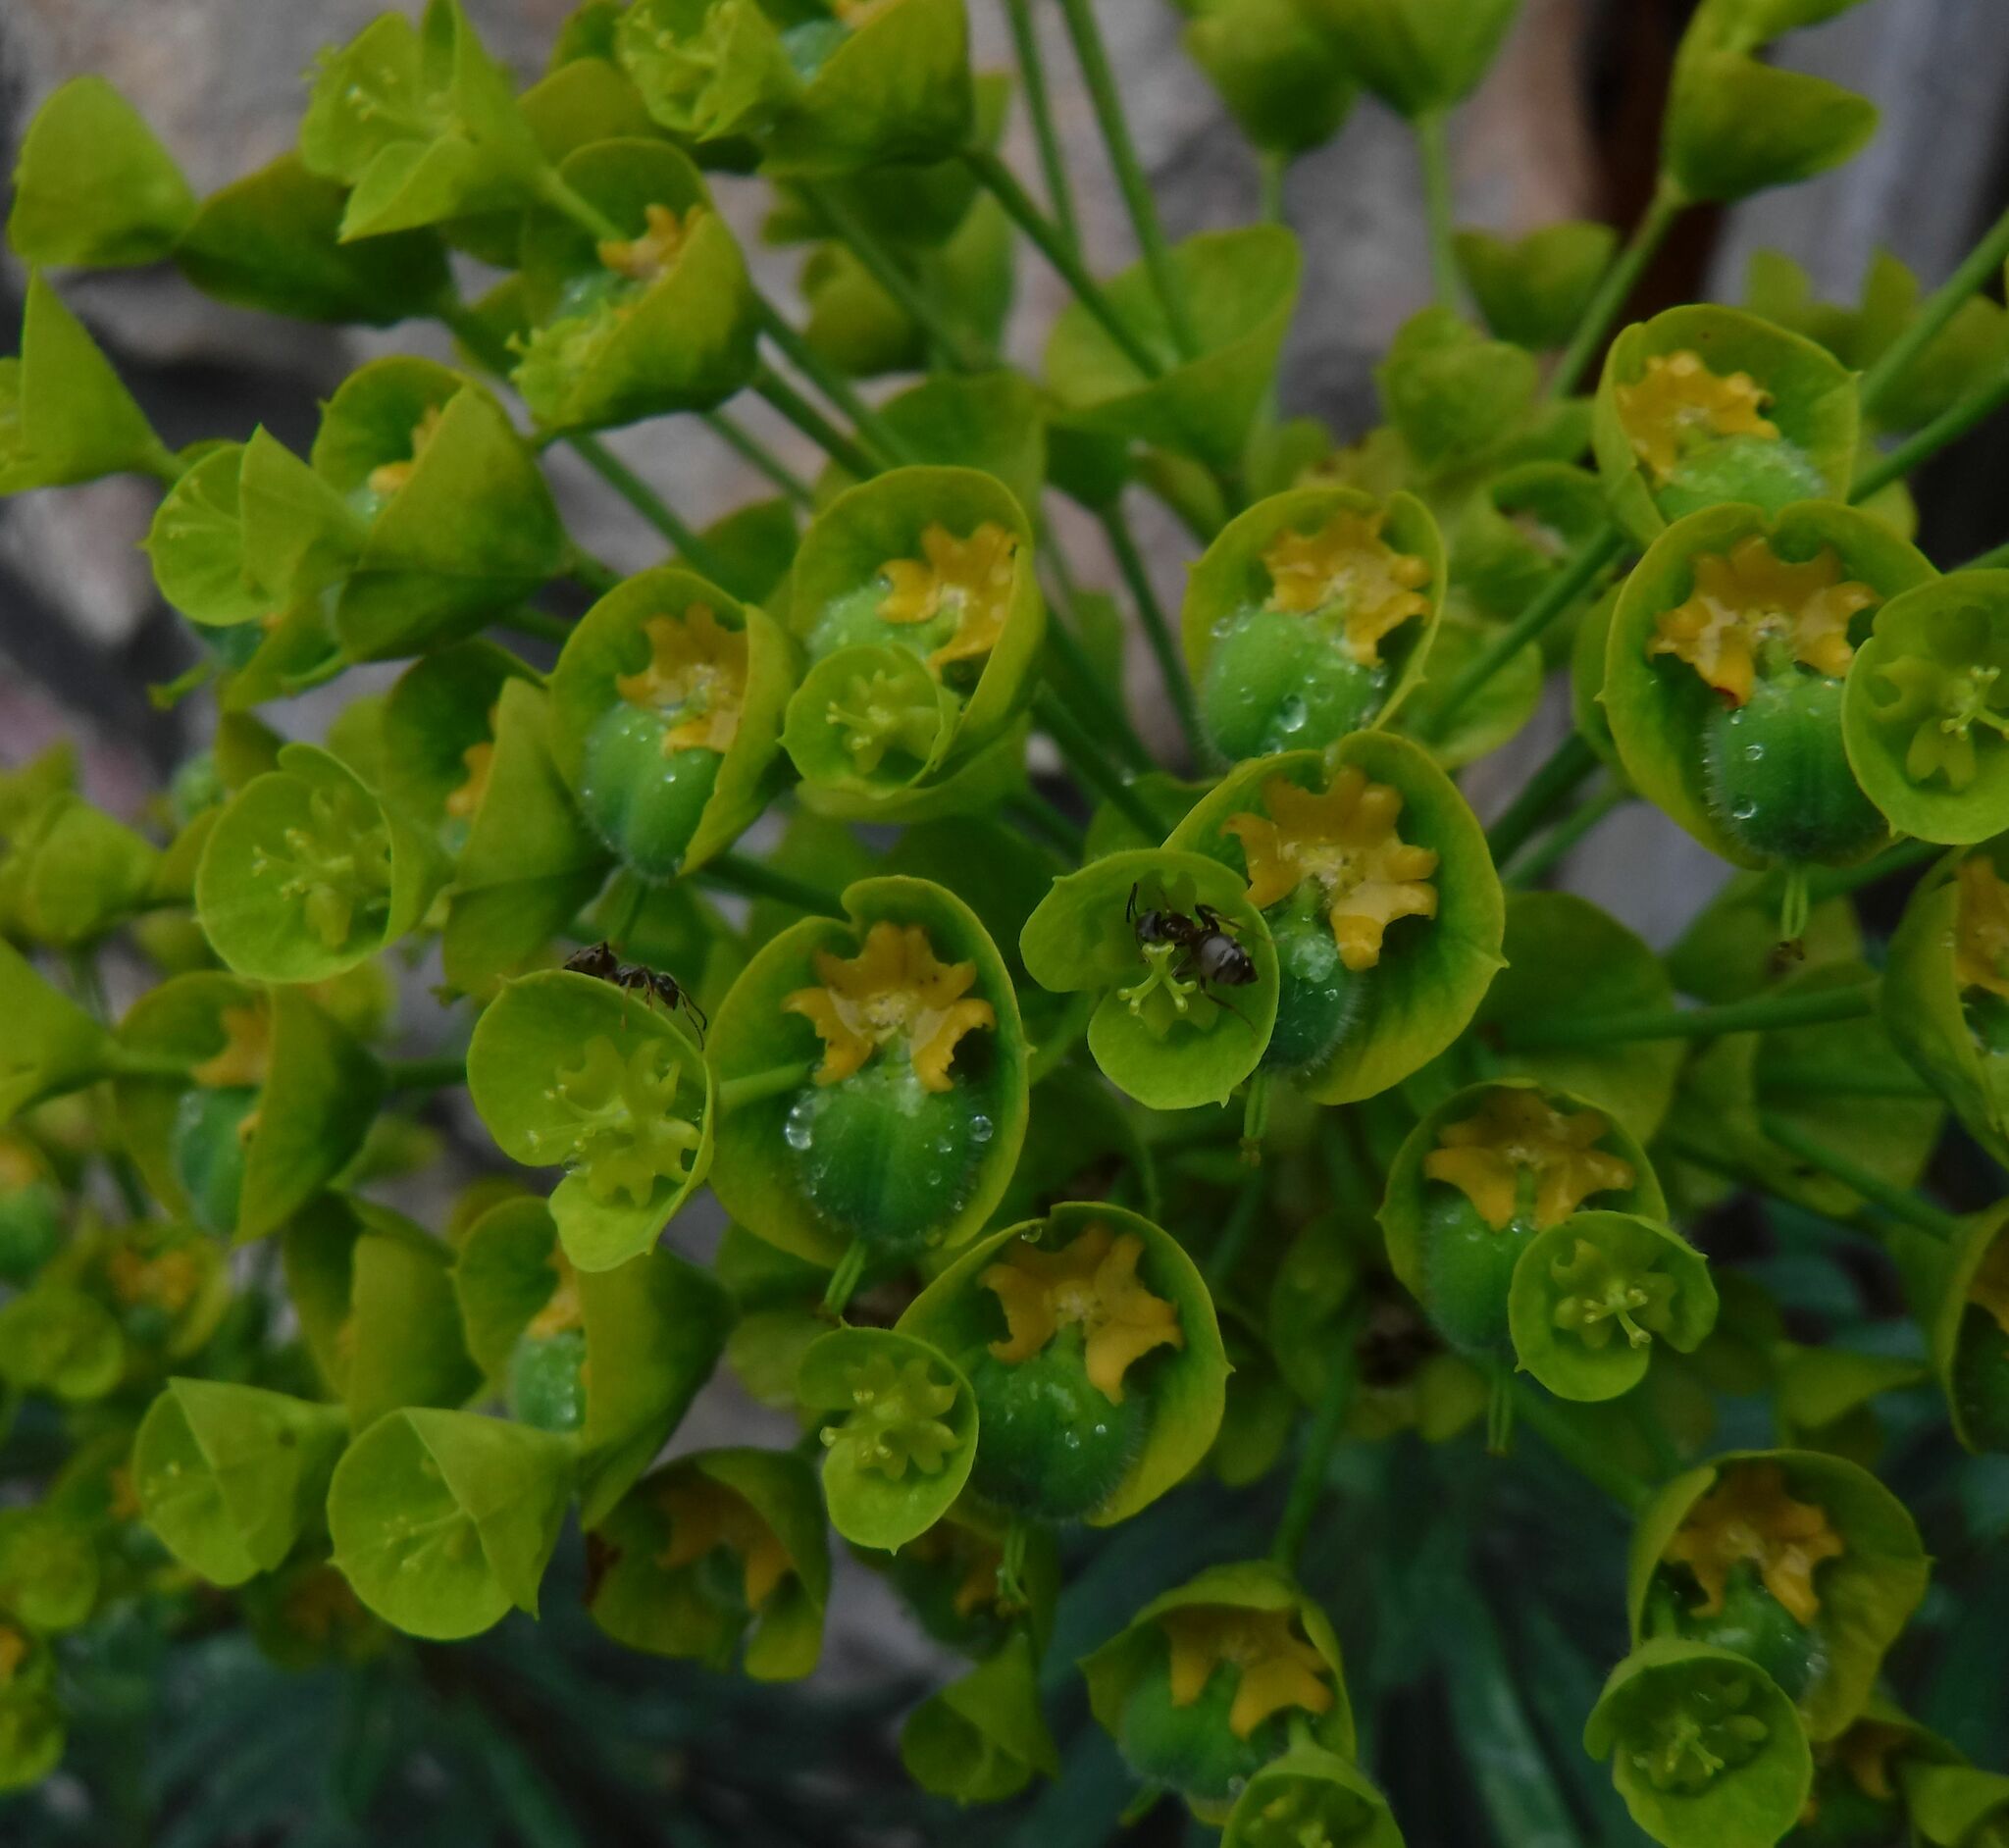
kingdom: Plantae
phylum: Tracheophyta
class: Magnoliopsida
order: Malpighiales
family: Euphorbiaceae
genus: Euphorbia
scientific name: Euphorbia characias
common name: Mediterranean spurge
